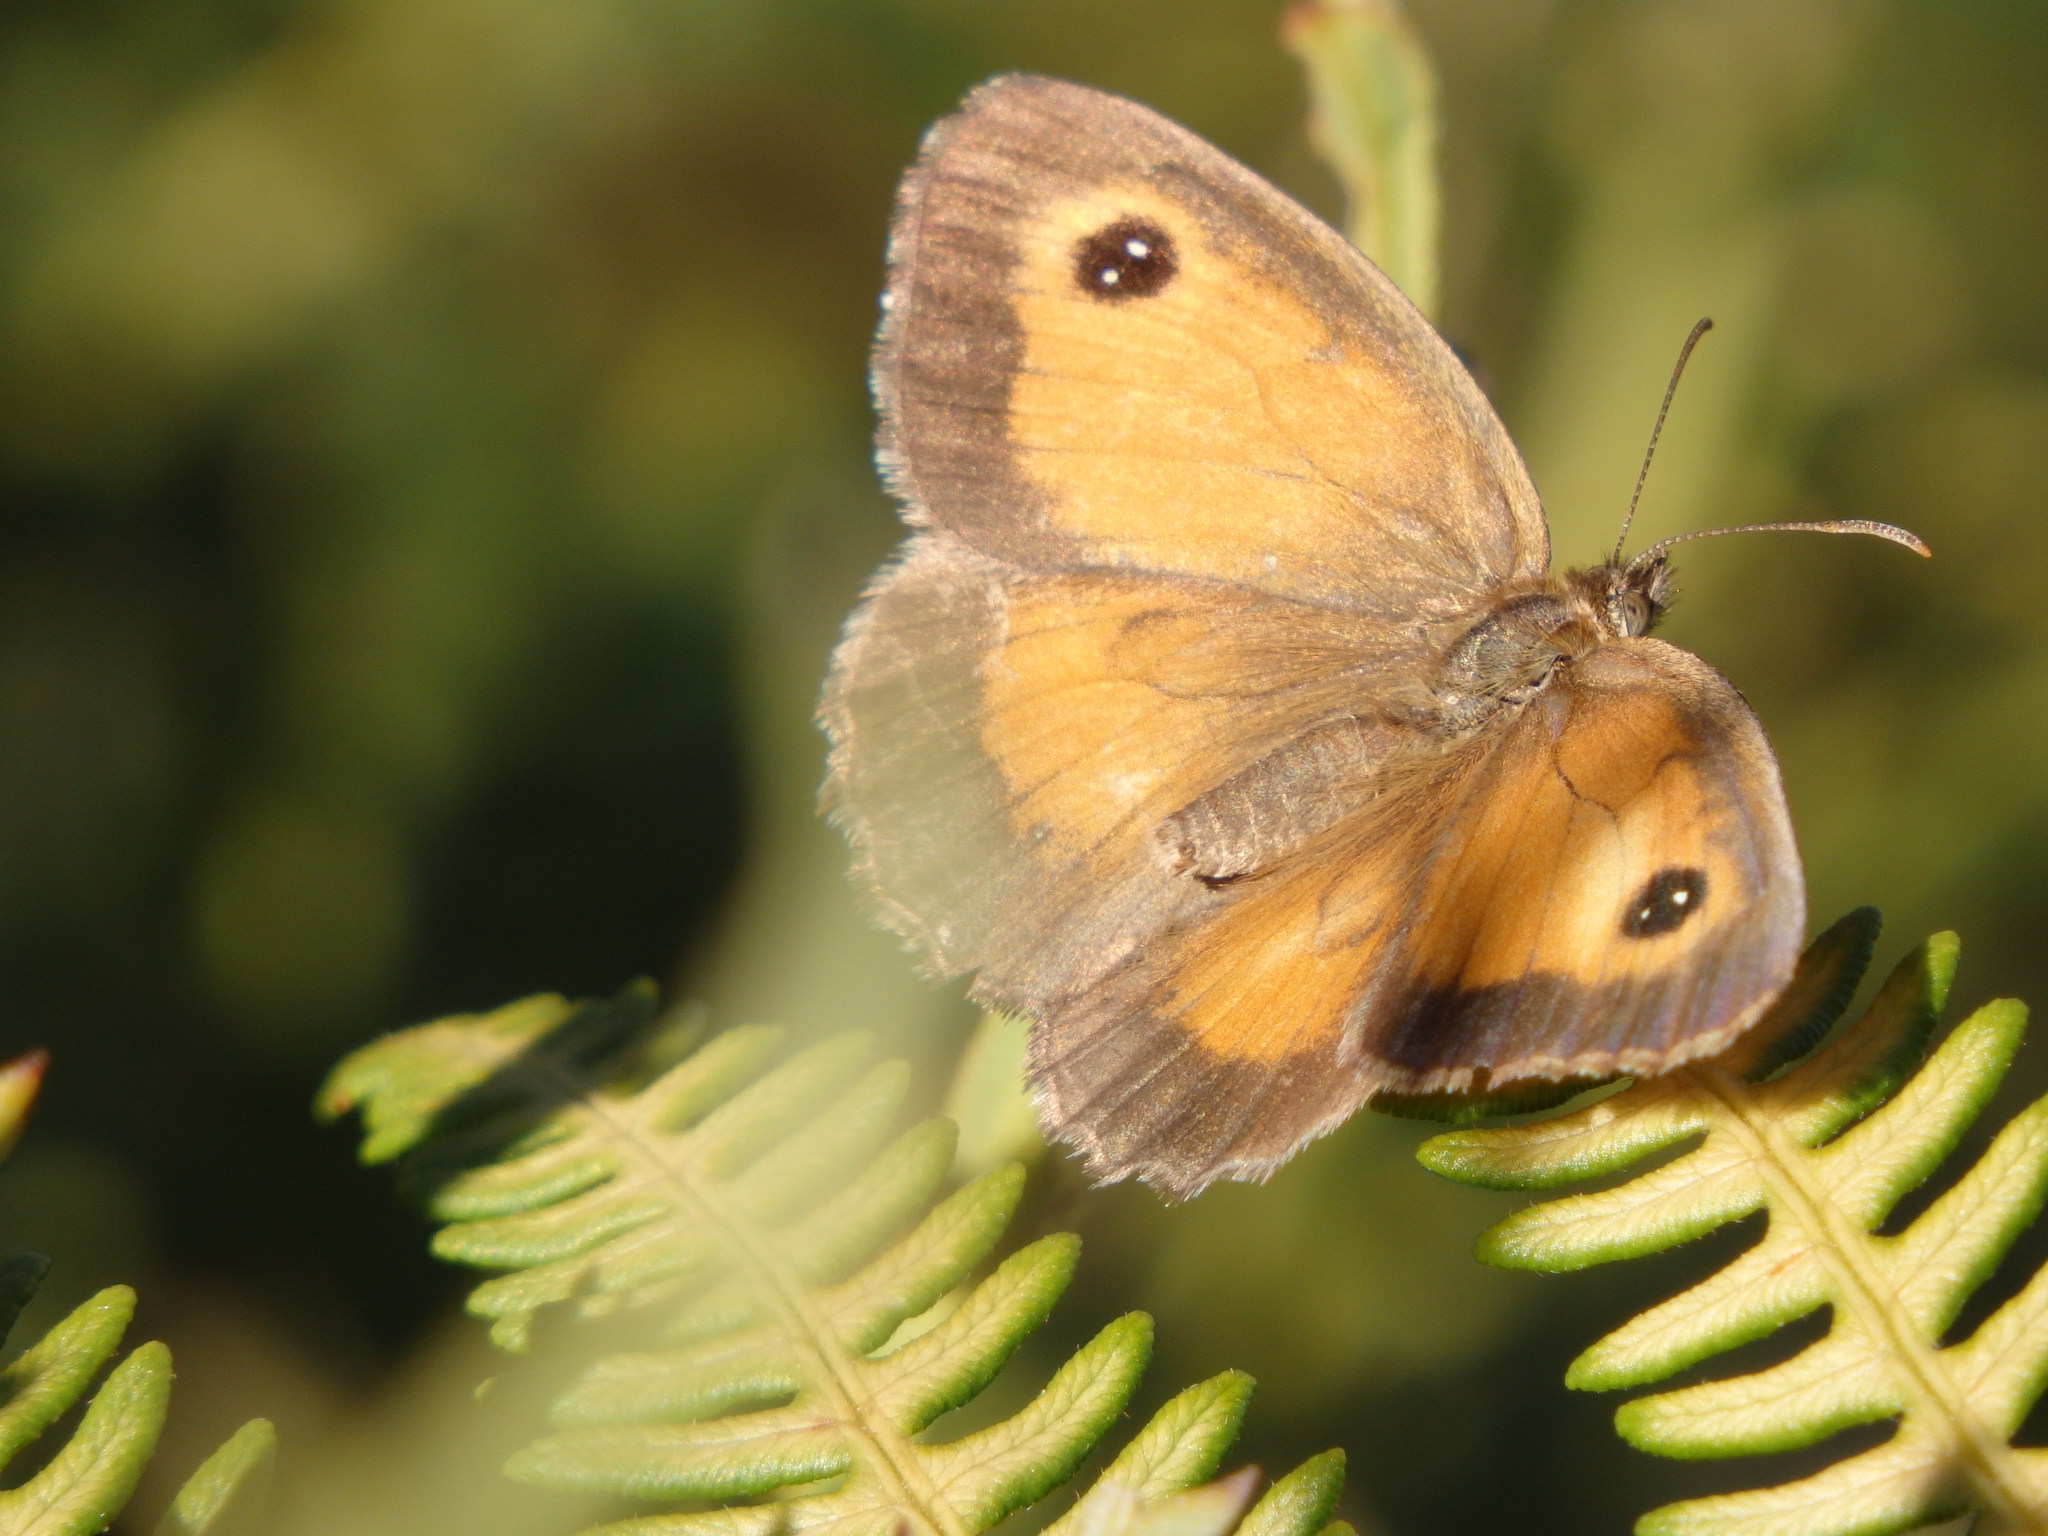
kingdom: Animalia
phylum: Arthropoda
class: Insecta
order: Lepidoptera
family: Nymphalidae
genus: Pyronia
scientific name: Pyronia tithonus
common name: Gatekeeper
